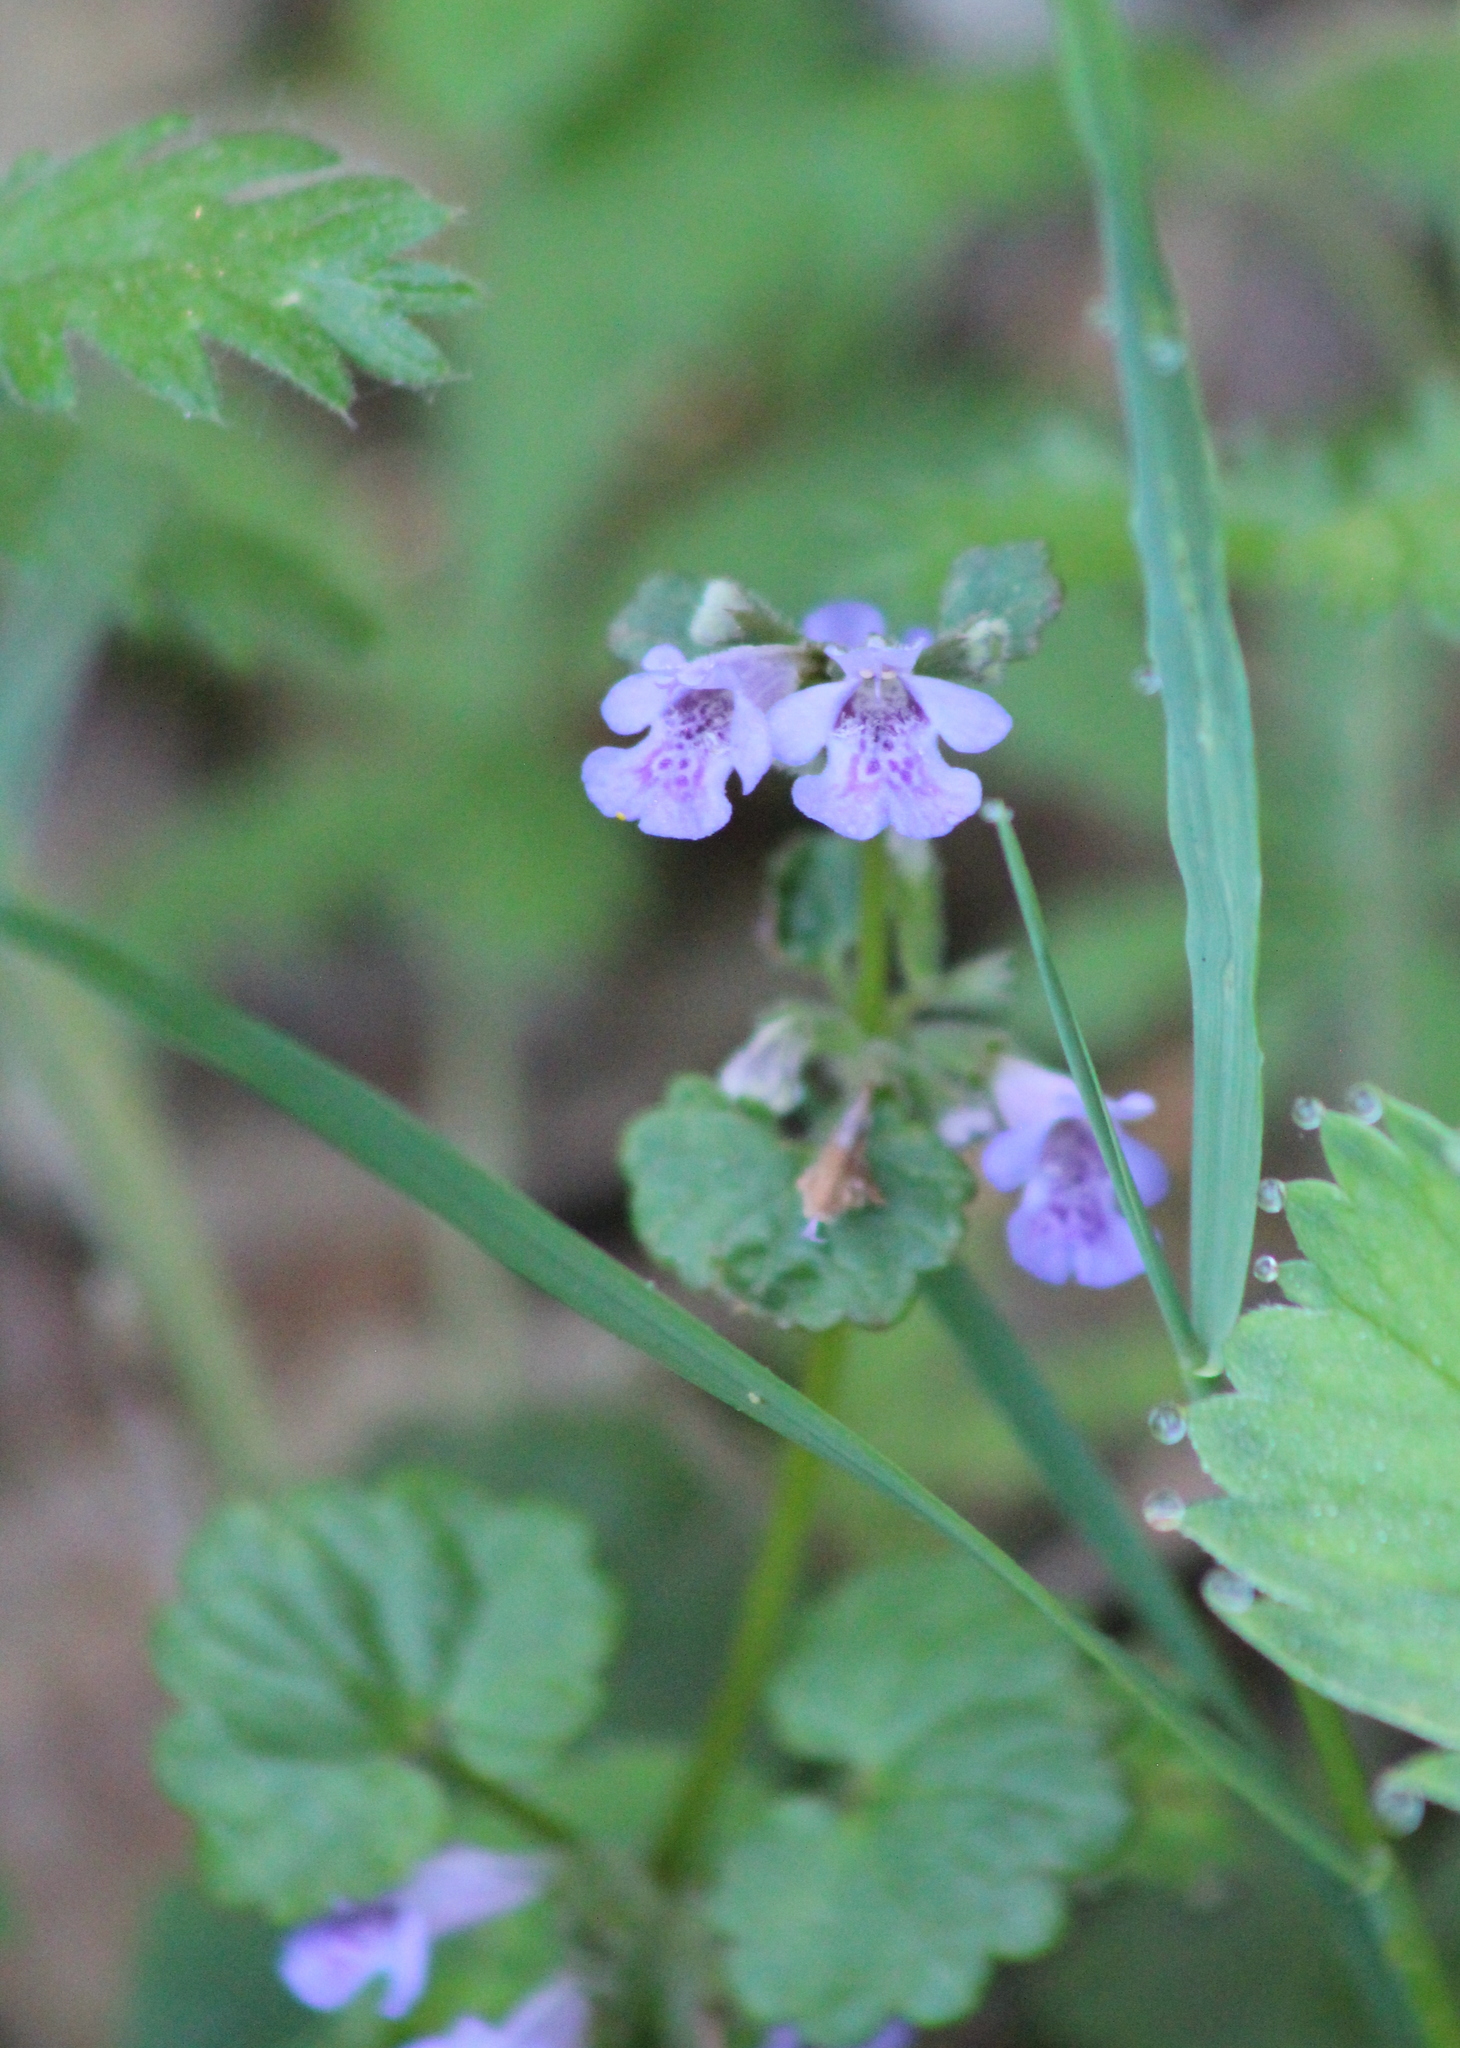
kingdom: Plantae
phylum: Tracheophyta
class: Magnoliopsida
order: Lamiales
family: Lamiaceae
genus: Glechoma
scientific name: Glechoma hederacea
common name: Ground ivy
